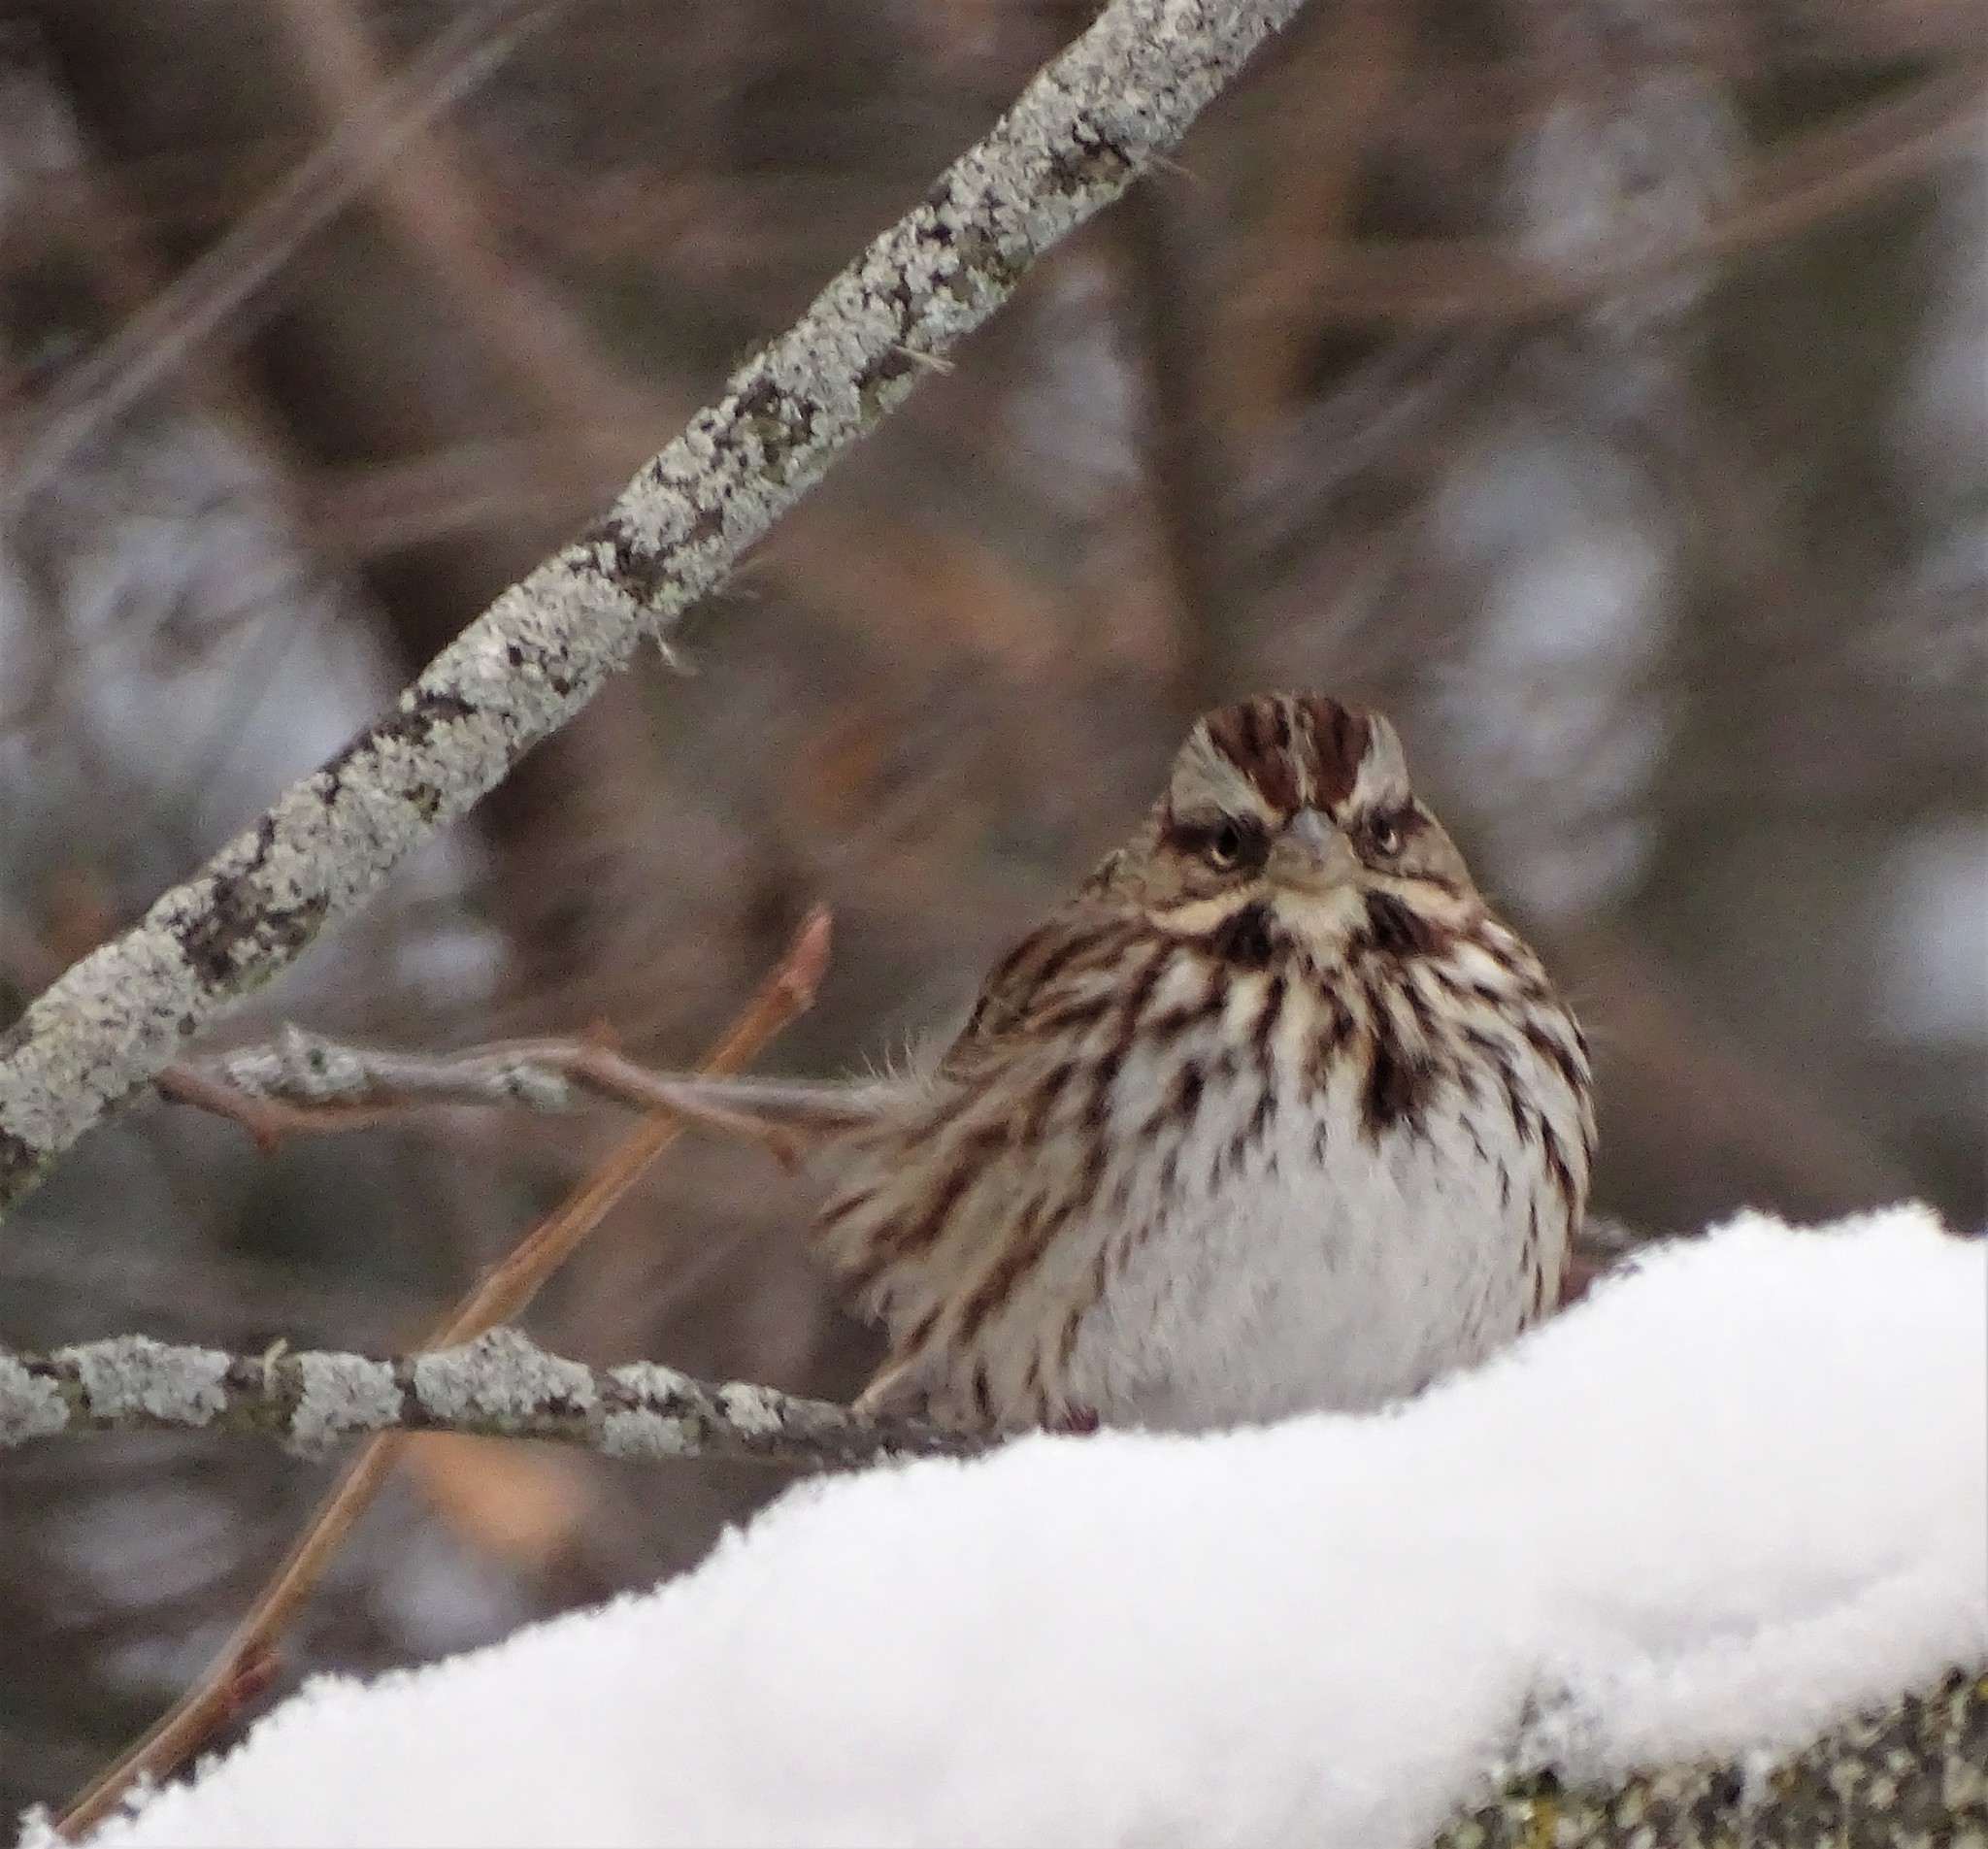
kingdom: Animalia
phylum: Chordata
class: Aves
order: Passeriformes
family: Passerellidae
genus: Melospiza
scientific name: Melospiza melodia
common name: Song sparrow
